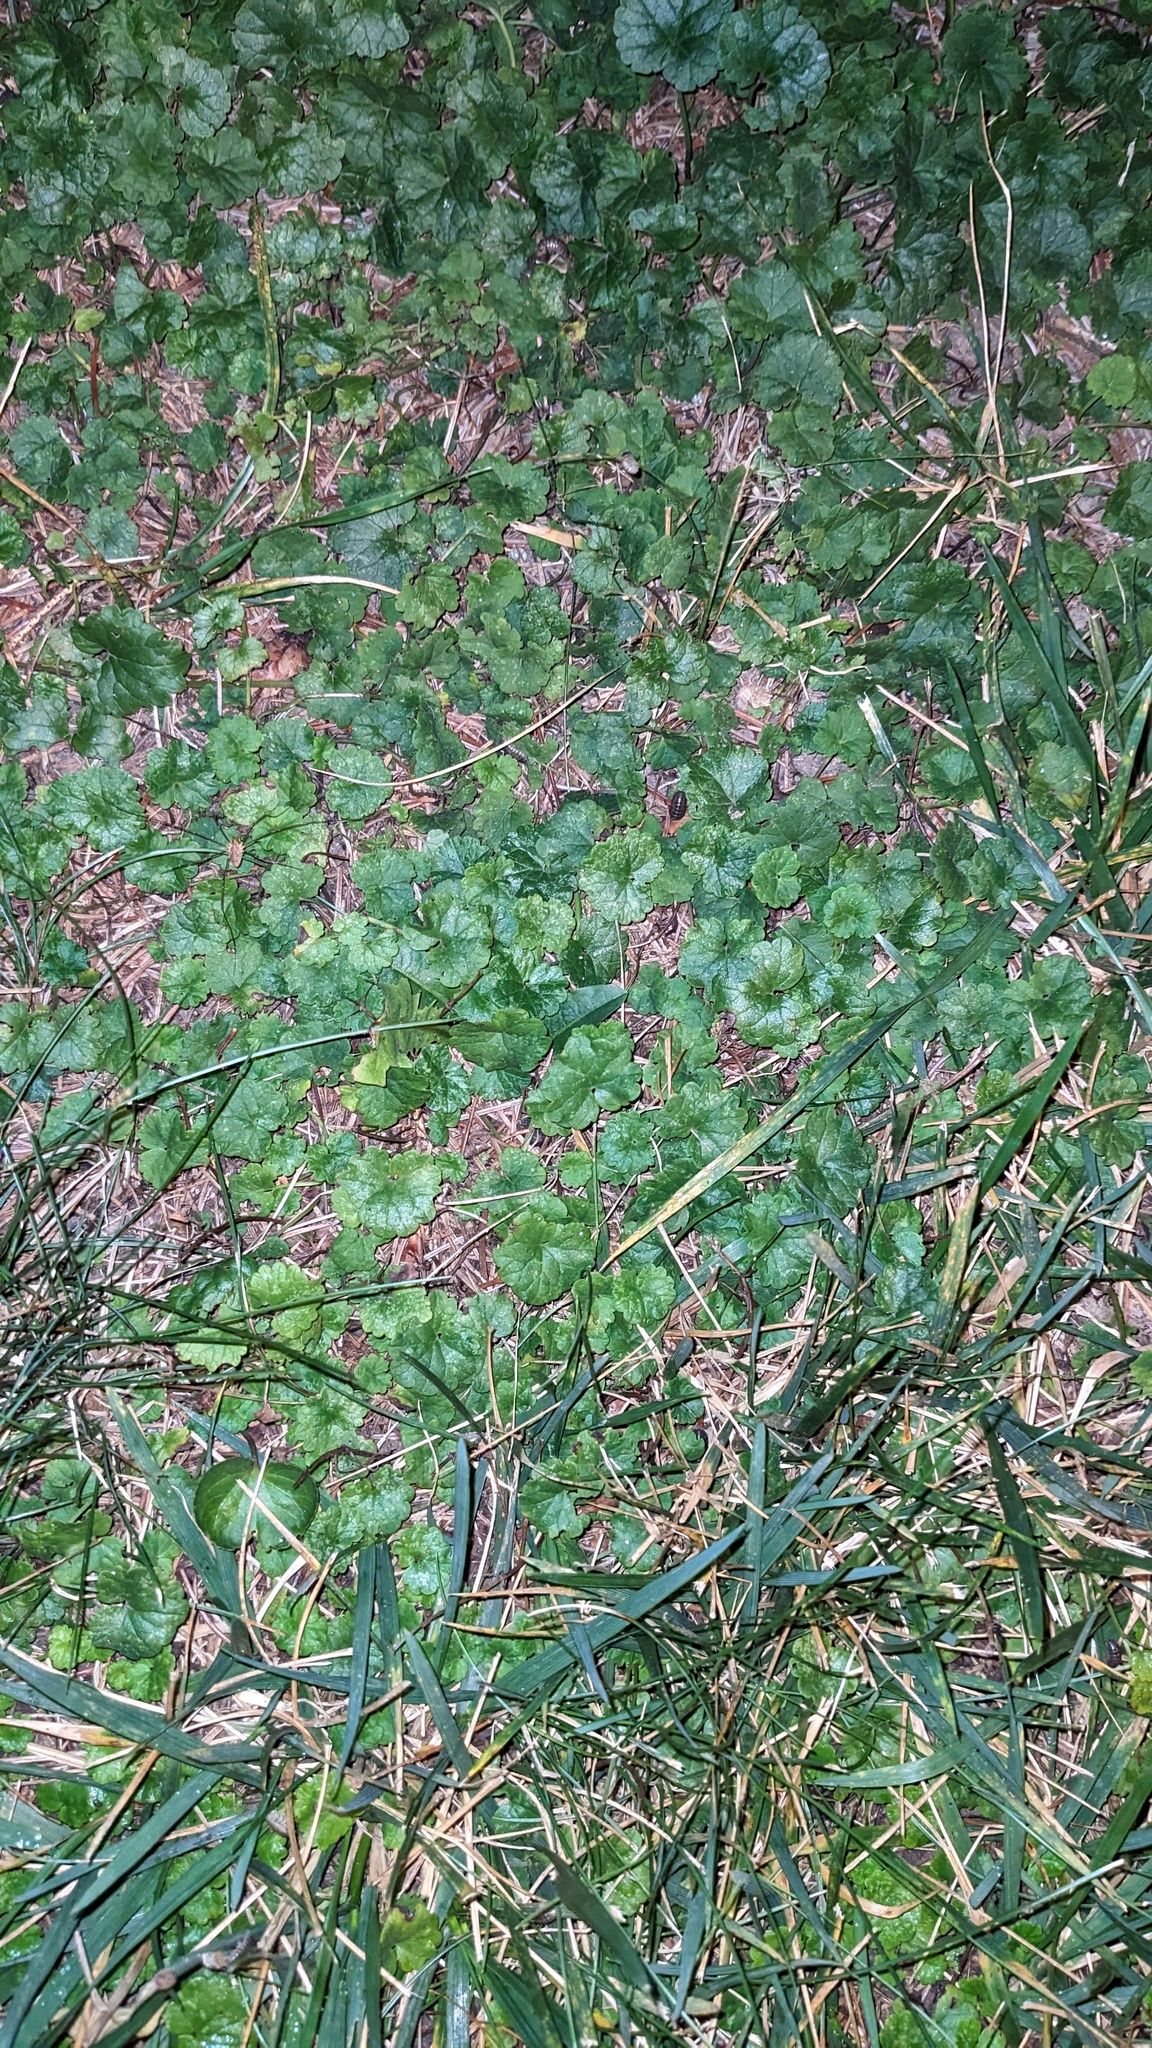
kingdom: Plantae
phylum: Tracheophyta
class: Magnoliopsida
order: Lamiales
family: Lamiaceae
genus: Glechoma
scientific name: Glechoma hederacea
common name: Ground ivy
